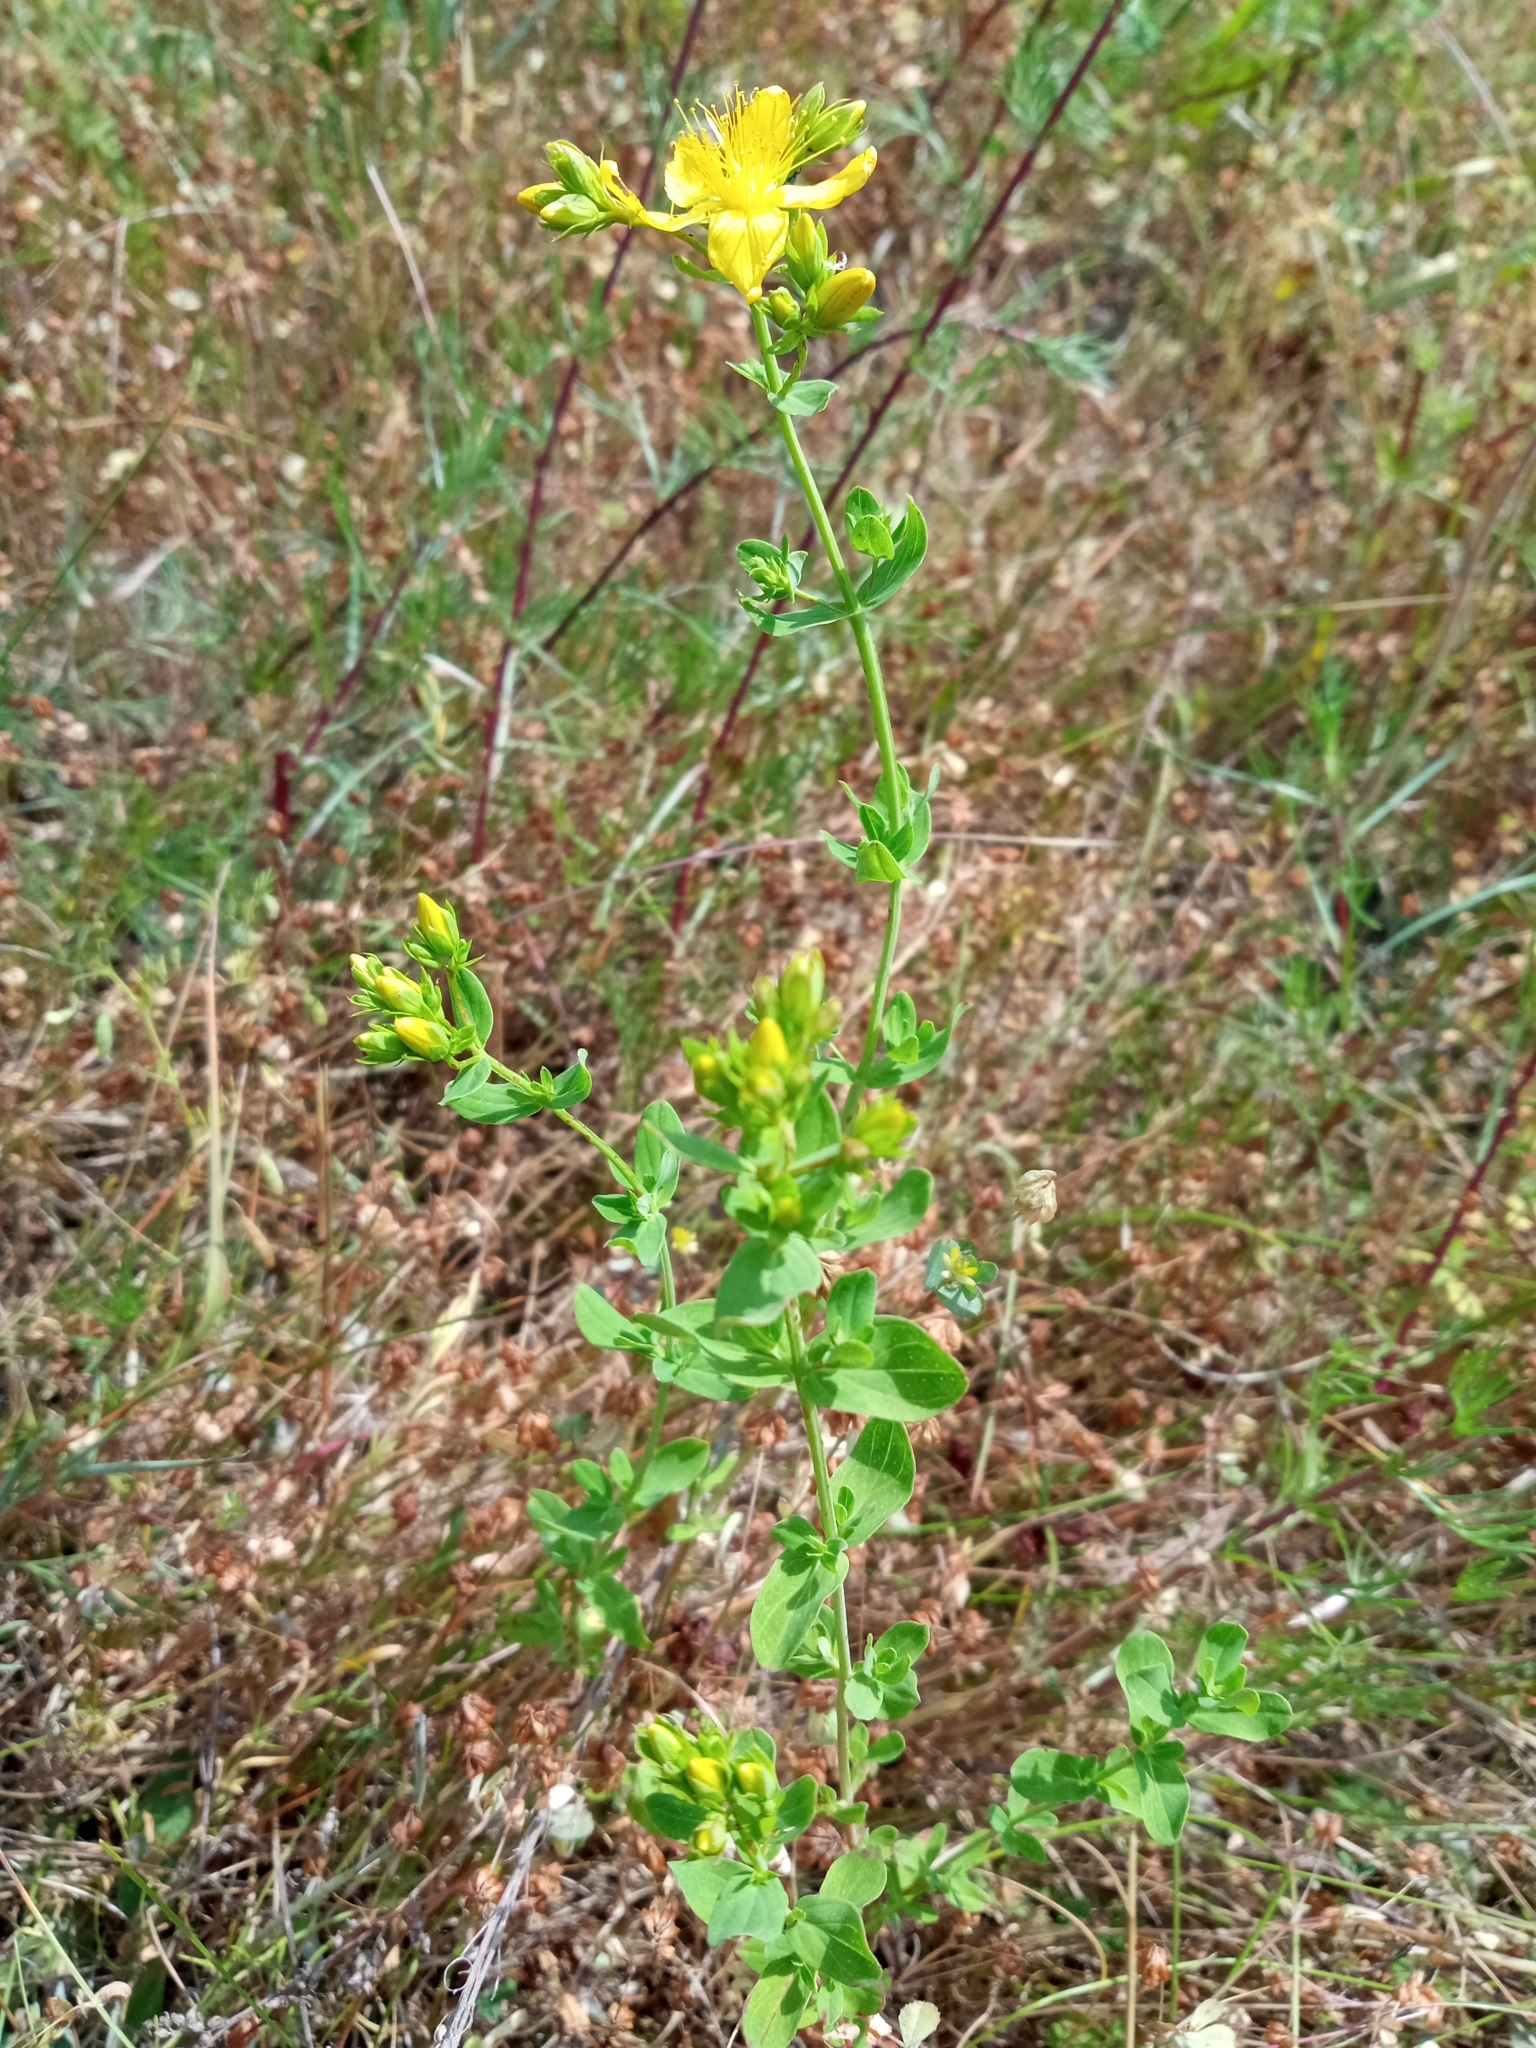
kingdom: Plantae
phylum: Tracheophyta
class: Magnoliopsida
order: Malpighiales
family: Hypericaceae
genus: Hypericum
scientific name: Hypericum perforatum
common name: Common st. johnswort
